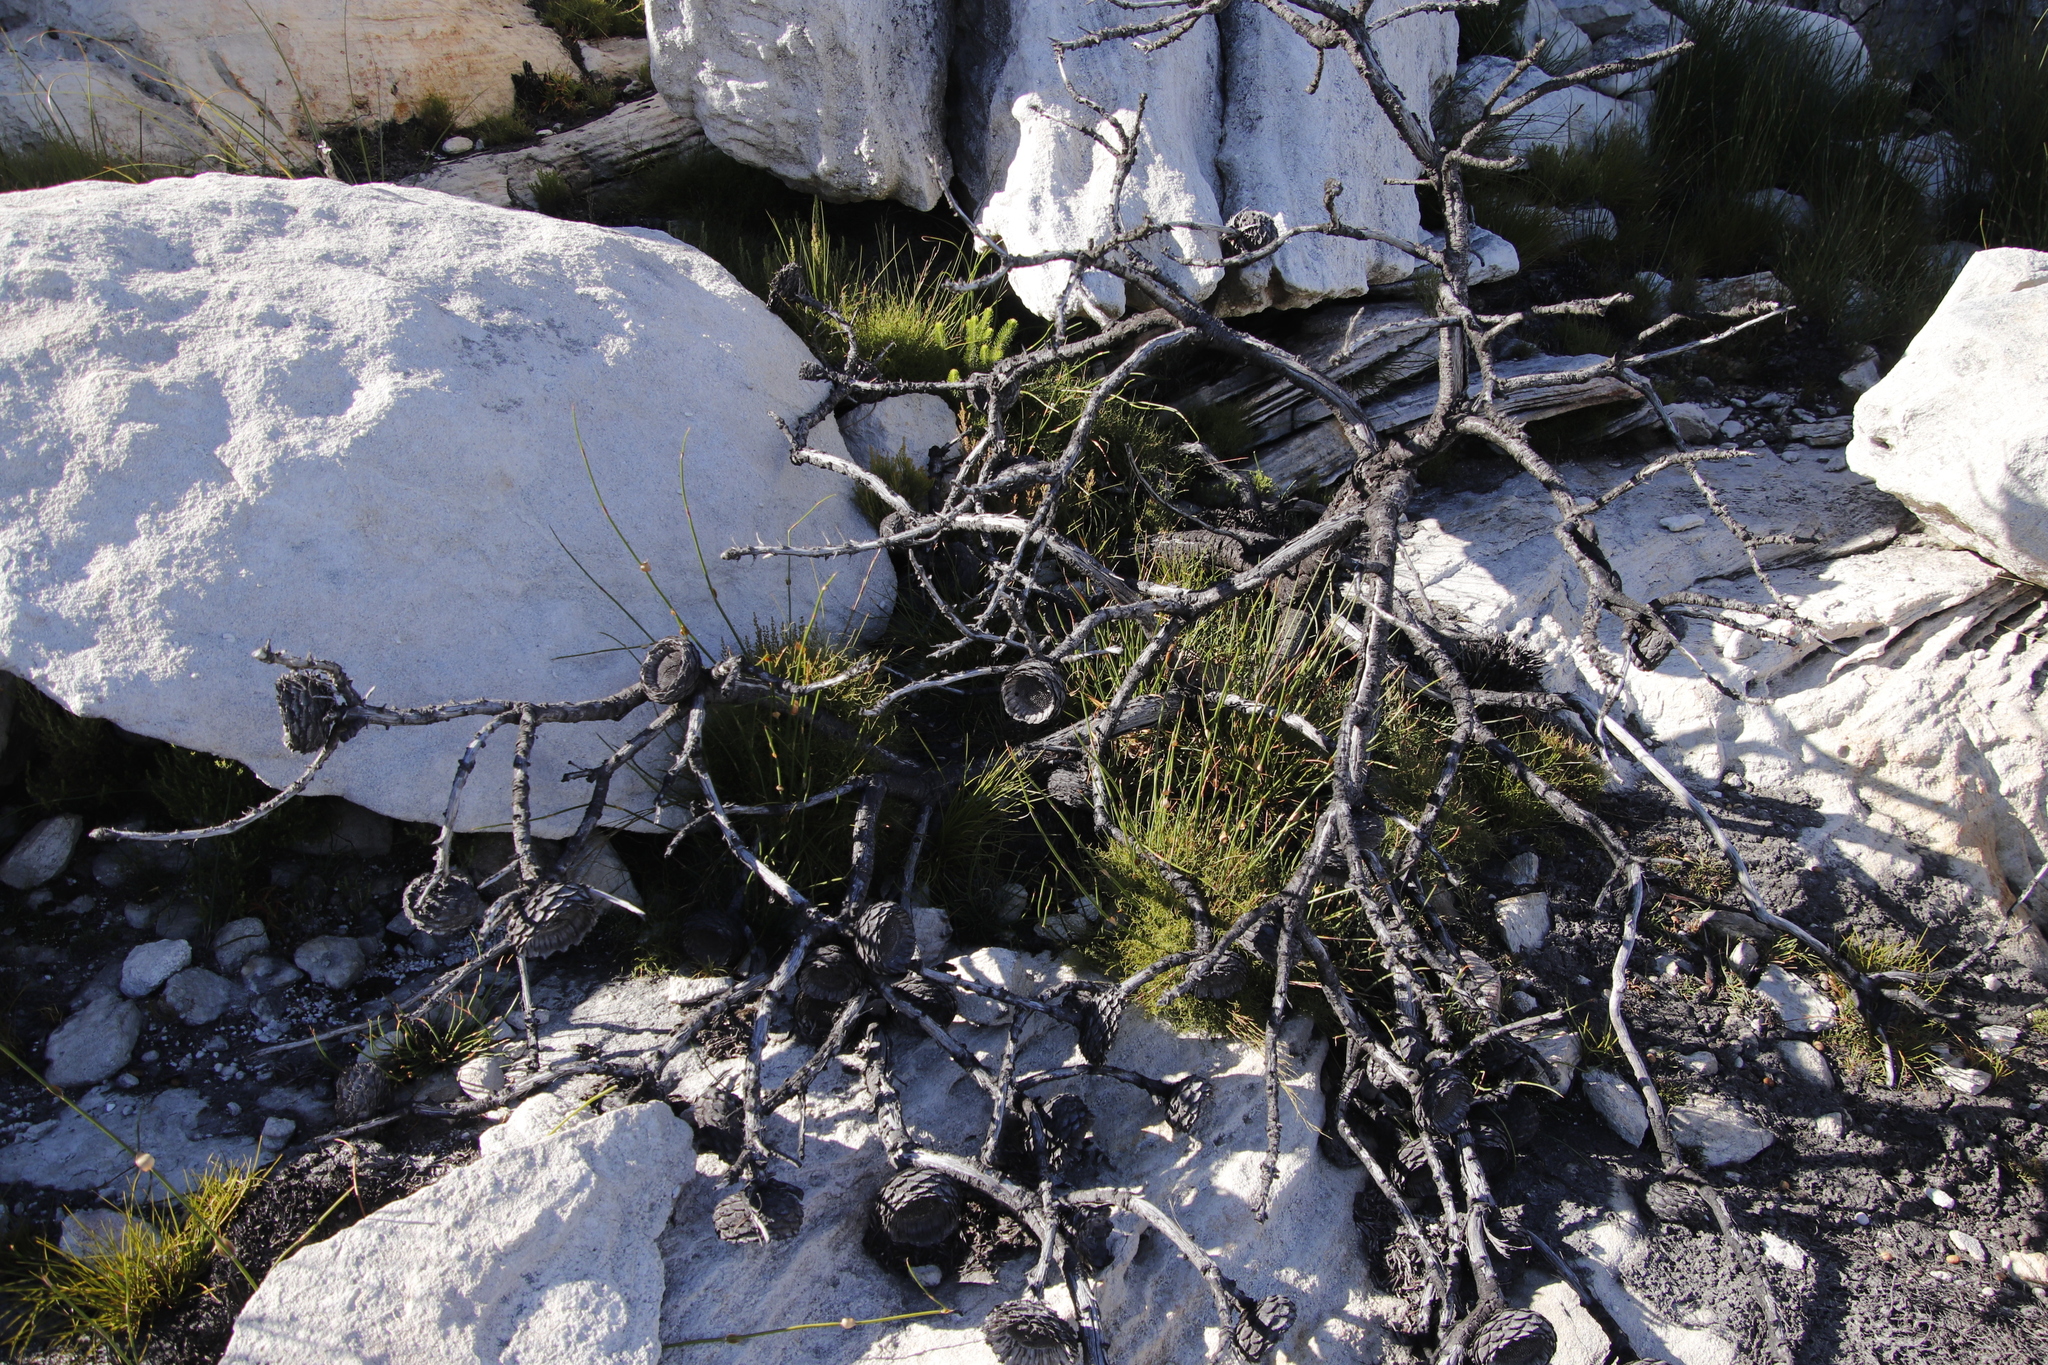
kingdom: Plantae
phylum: Tracheophyta
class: Magnoliopsida
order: Proteales
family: Proteaceae
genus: Protea
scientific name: Protea magnifica
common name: Bearded sugarbush
